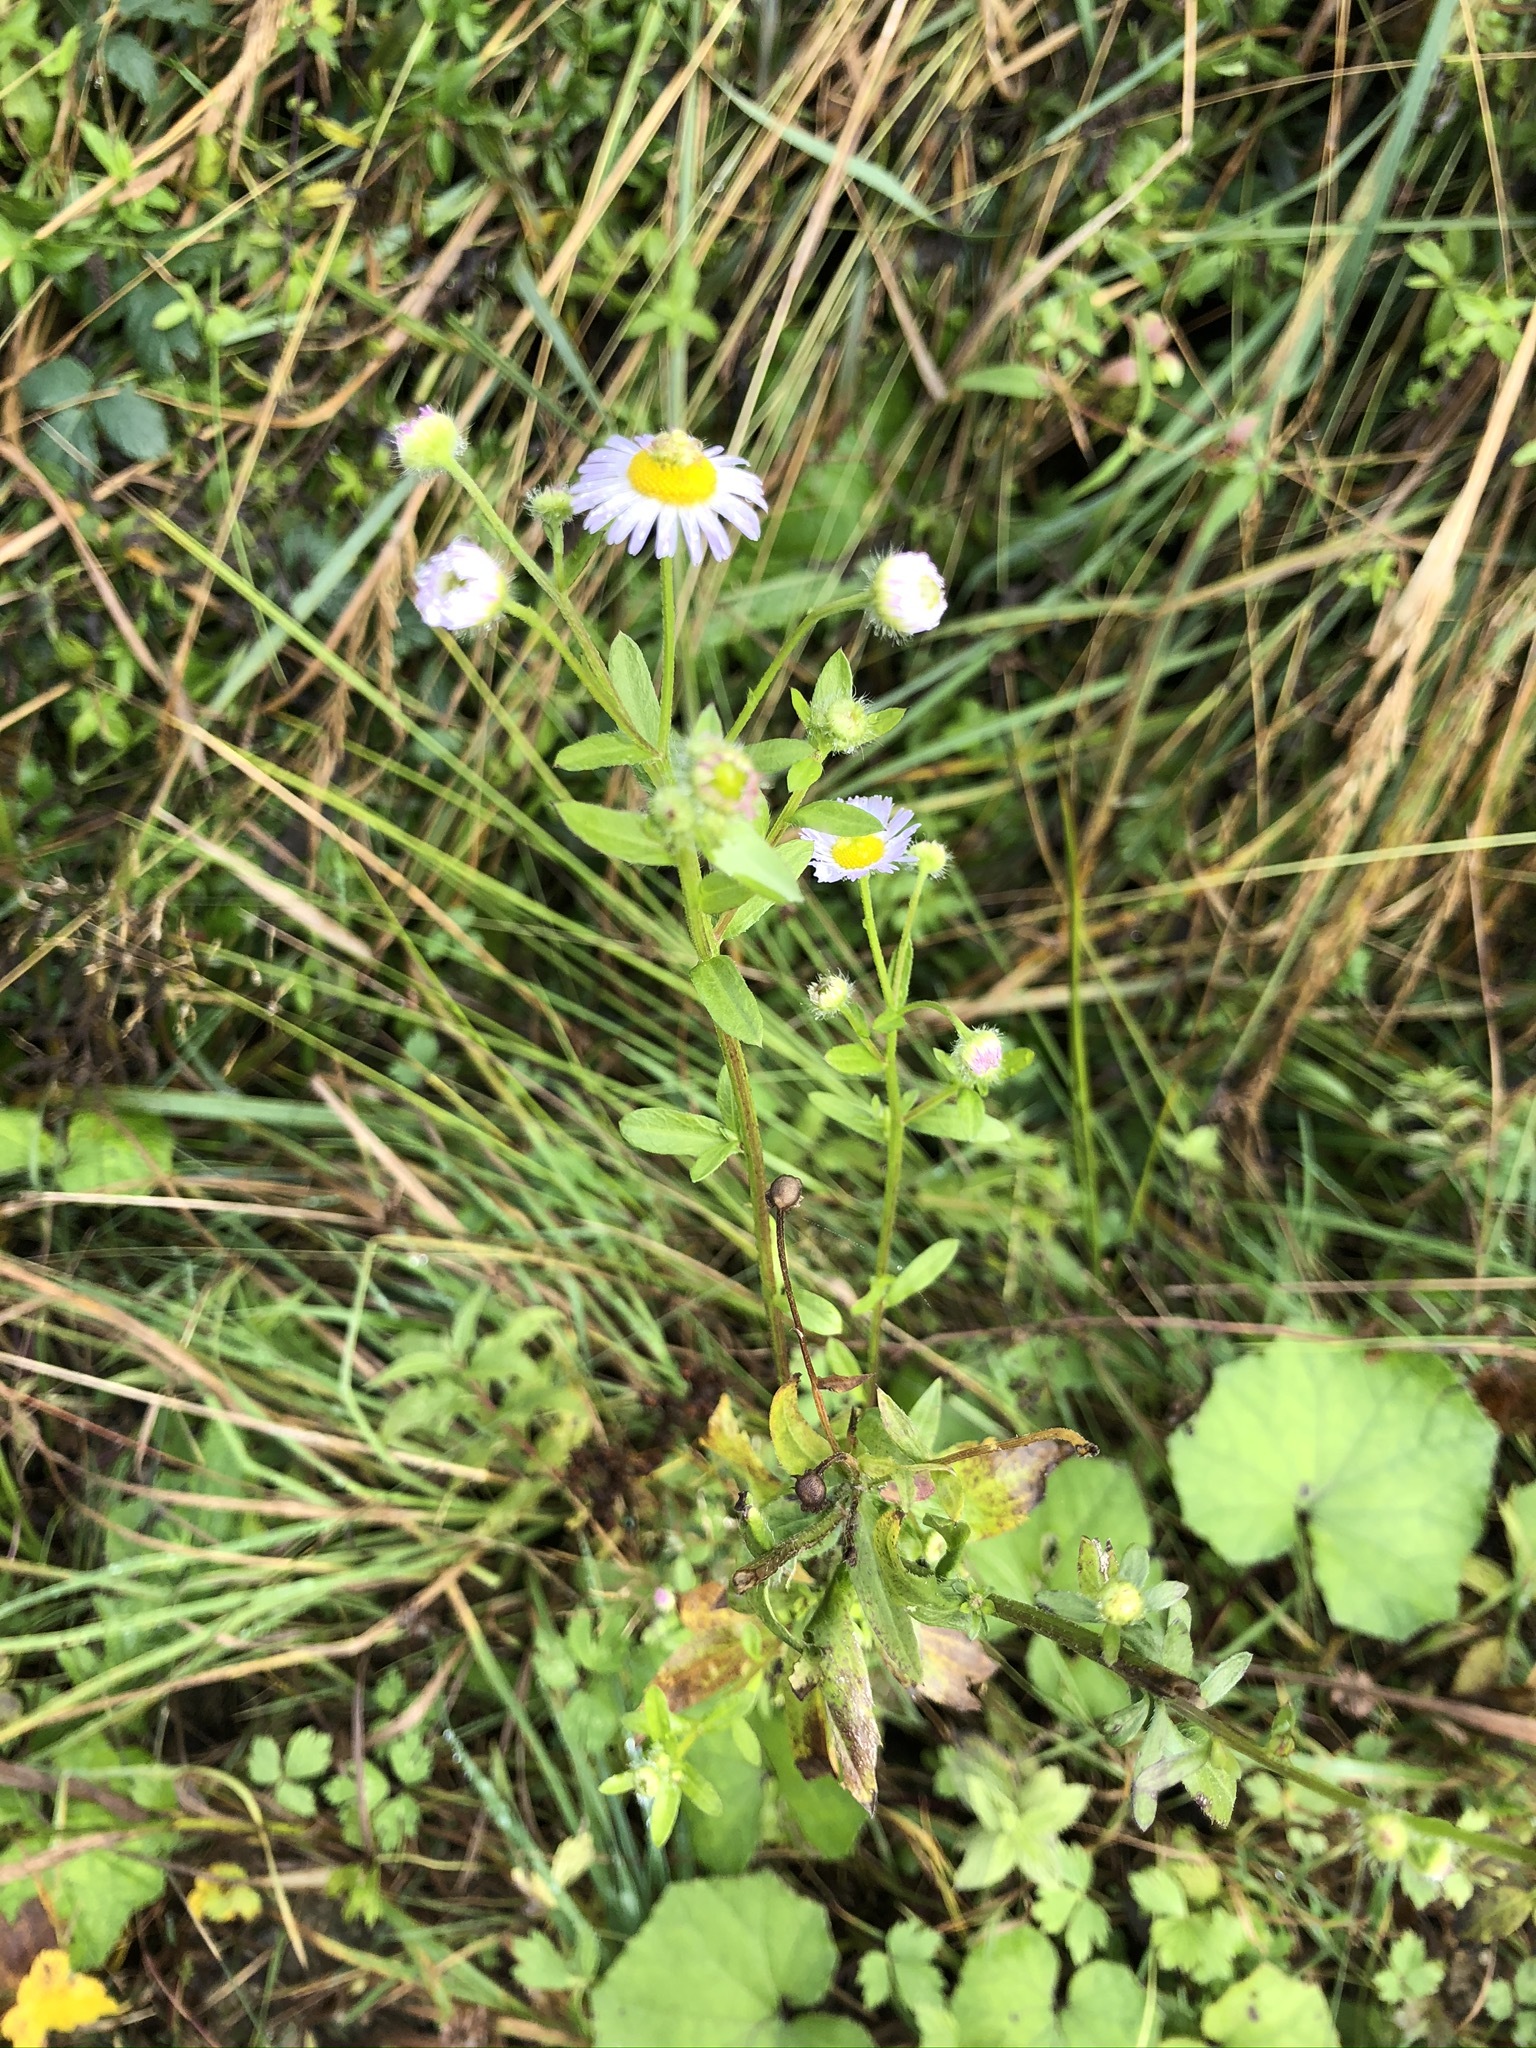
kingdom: Plantae
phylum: Tracheophyta
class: Magnoliopsida
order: Asterales
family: Asteraceae
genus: Erigeron
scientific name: Erigeron annuus
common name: Tall fleabane
